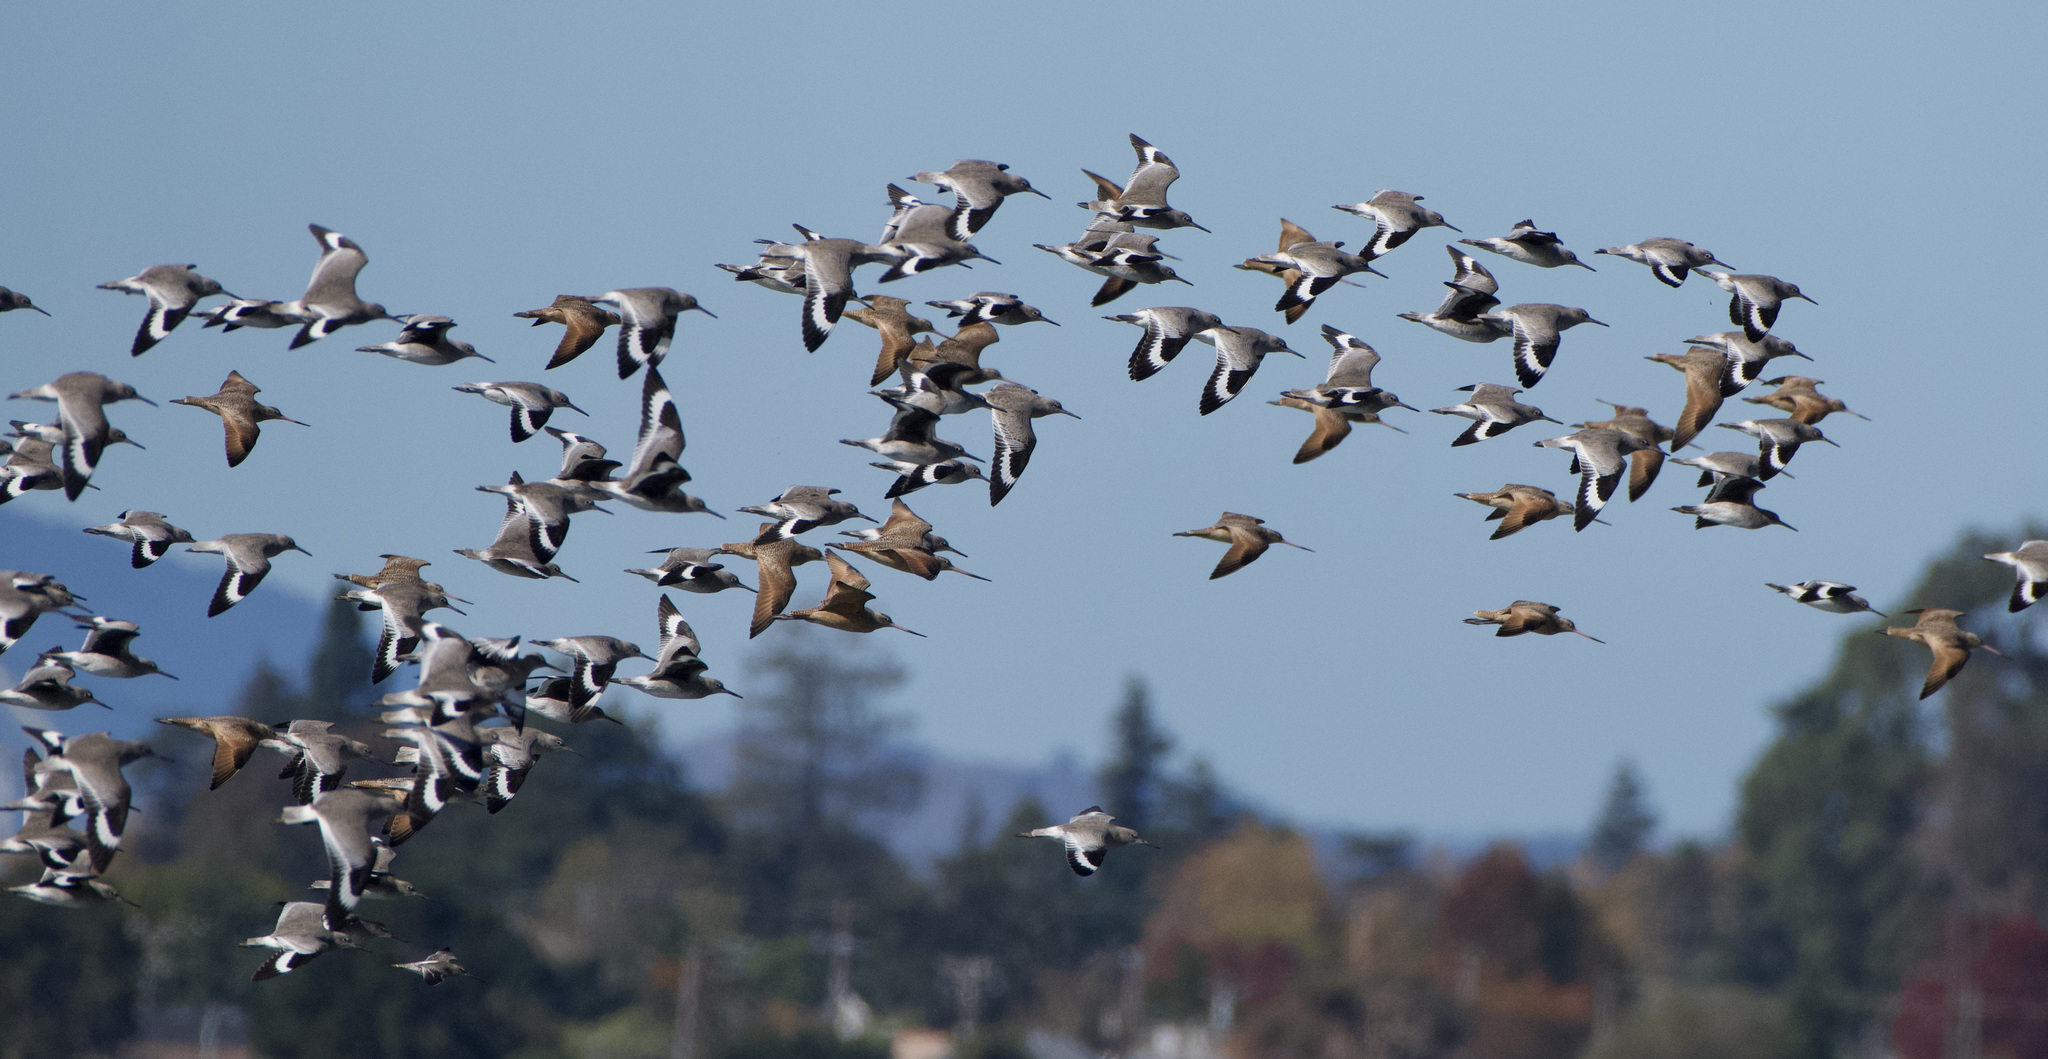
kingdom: Animalia
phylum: Chordata
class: Aves
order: Charadriiformes
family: Scolopacidae
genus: Limosa
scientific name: Limosa fedoa
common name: Marbled godwit
